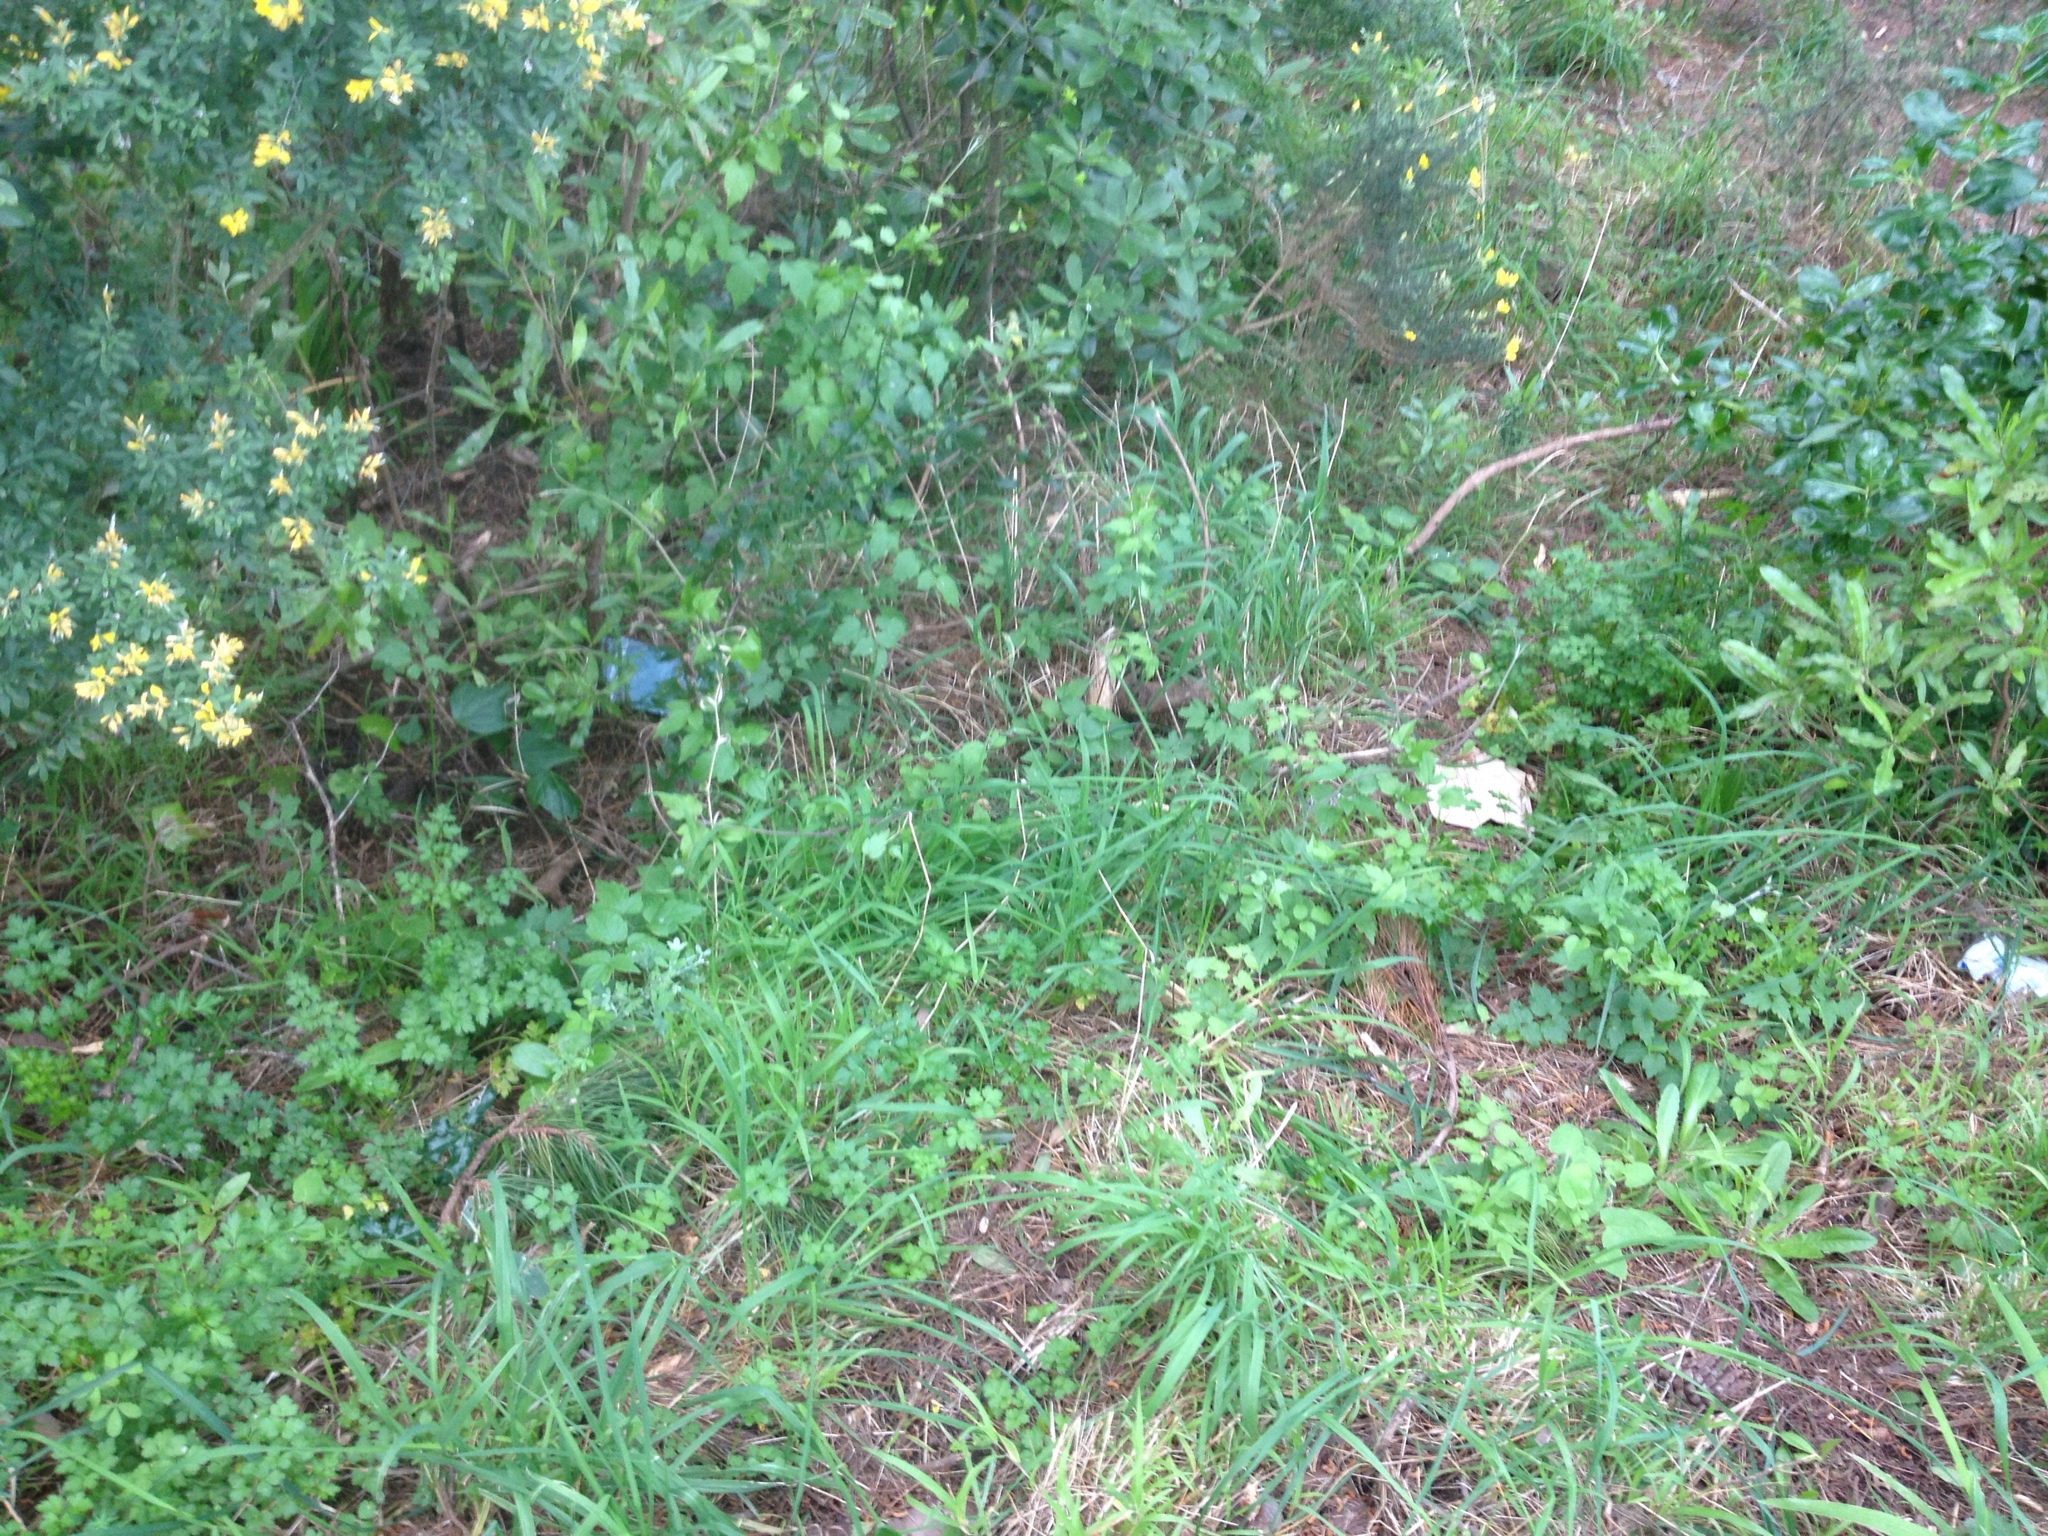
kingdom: Plantae
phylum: Tracheophyta
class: Magnoliopsida
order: Ranunculales
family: Ranunculaceae
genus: Clematis
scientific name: Clematis vitalba
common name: Evergreen clematis
